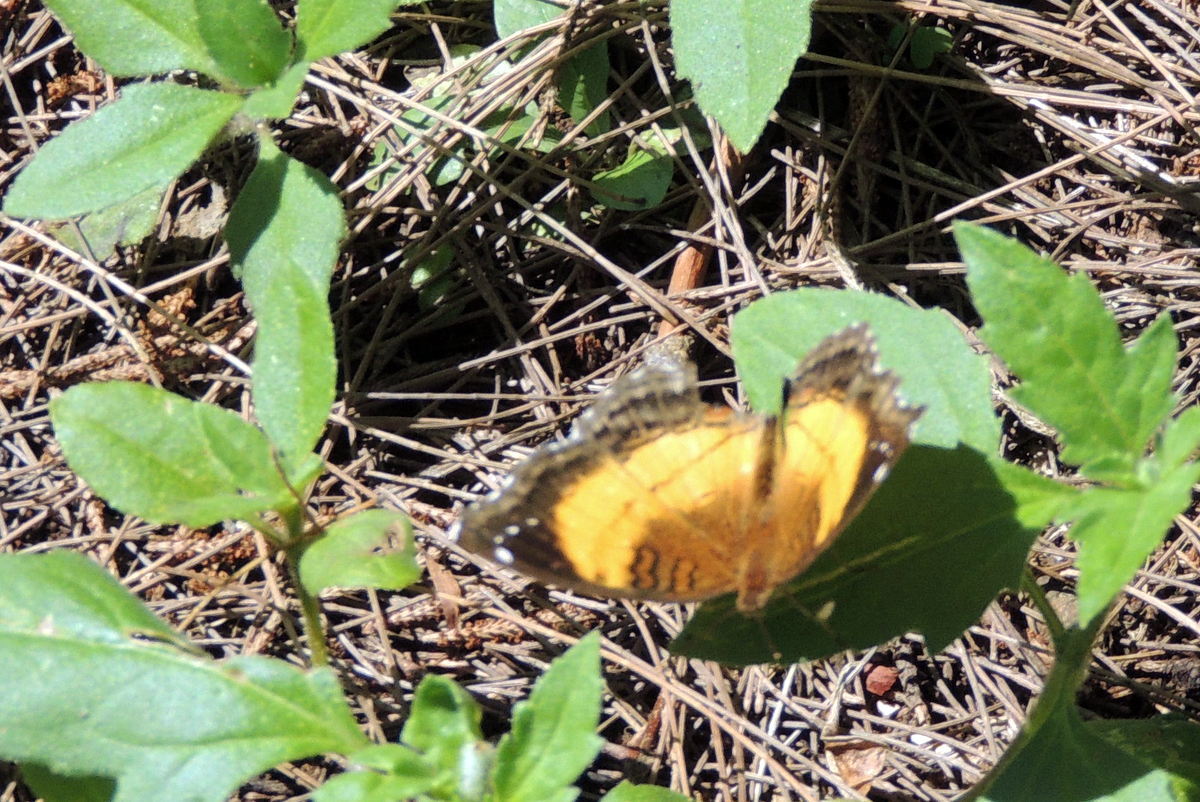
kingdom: Animalia
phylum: Arthropoda
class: Insecta
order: Lepidoptera
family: Nymphalidae
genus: Junonia
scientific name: Junonia terea
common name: Soldier pansy
